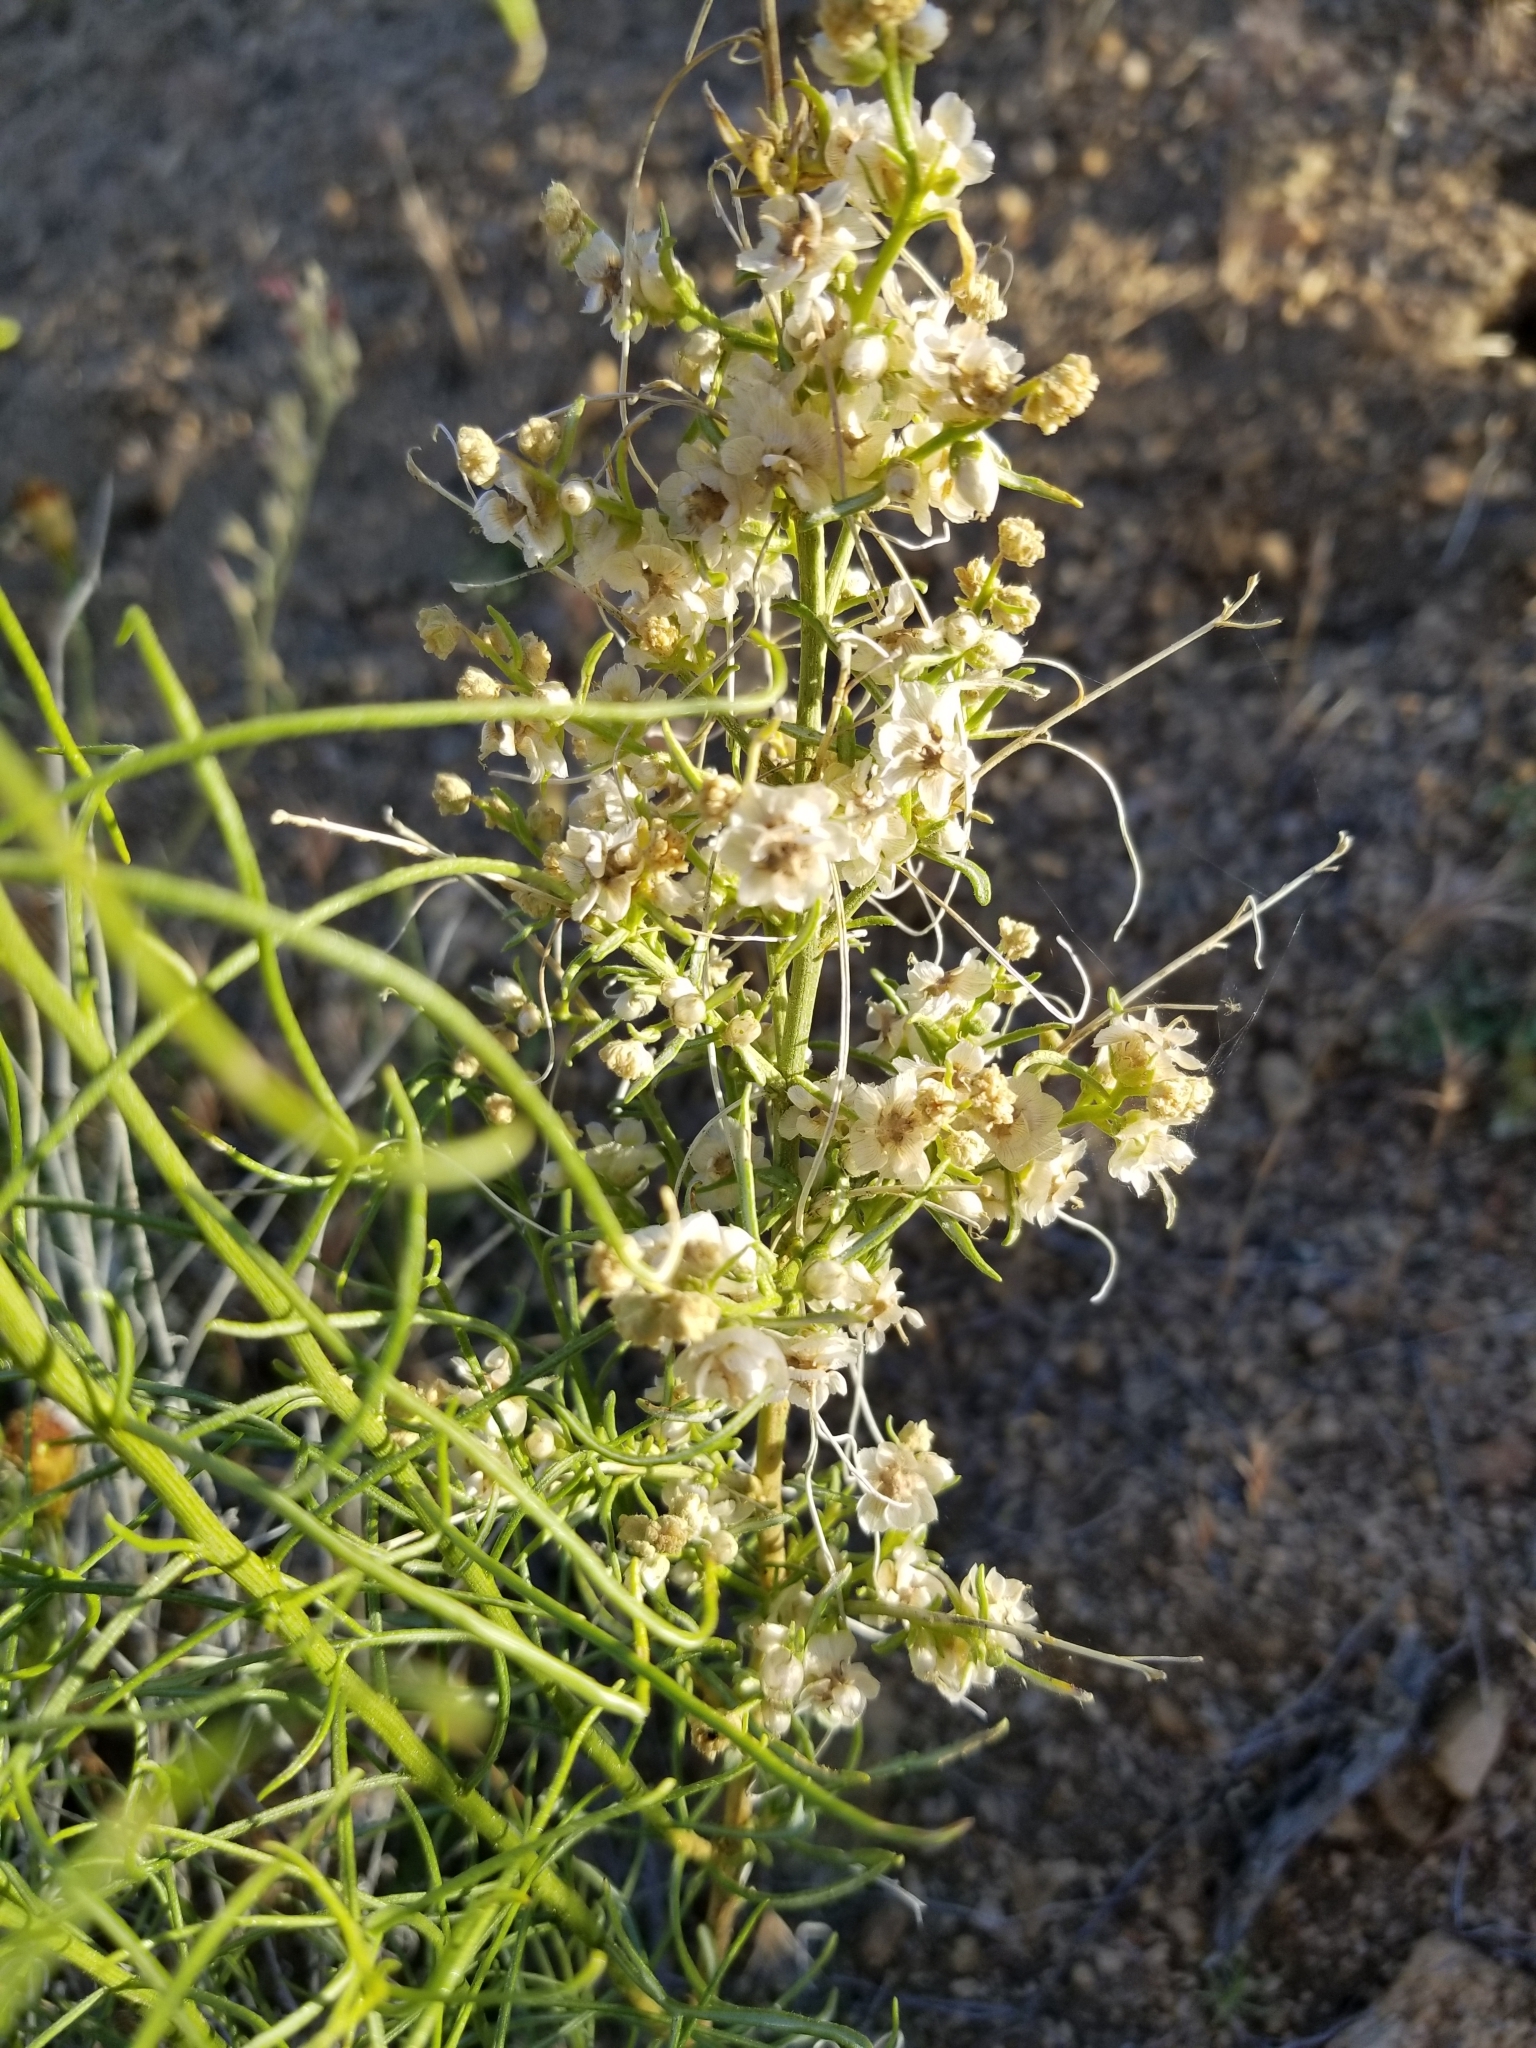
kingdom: Plantae
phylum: Tracheophyta
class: Magnoliopsida
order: Asterales
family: Asteraceae
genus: Ambrosia
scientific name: Ambrosia salsola
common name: Burrobrush
